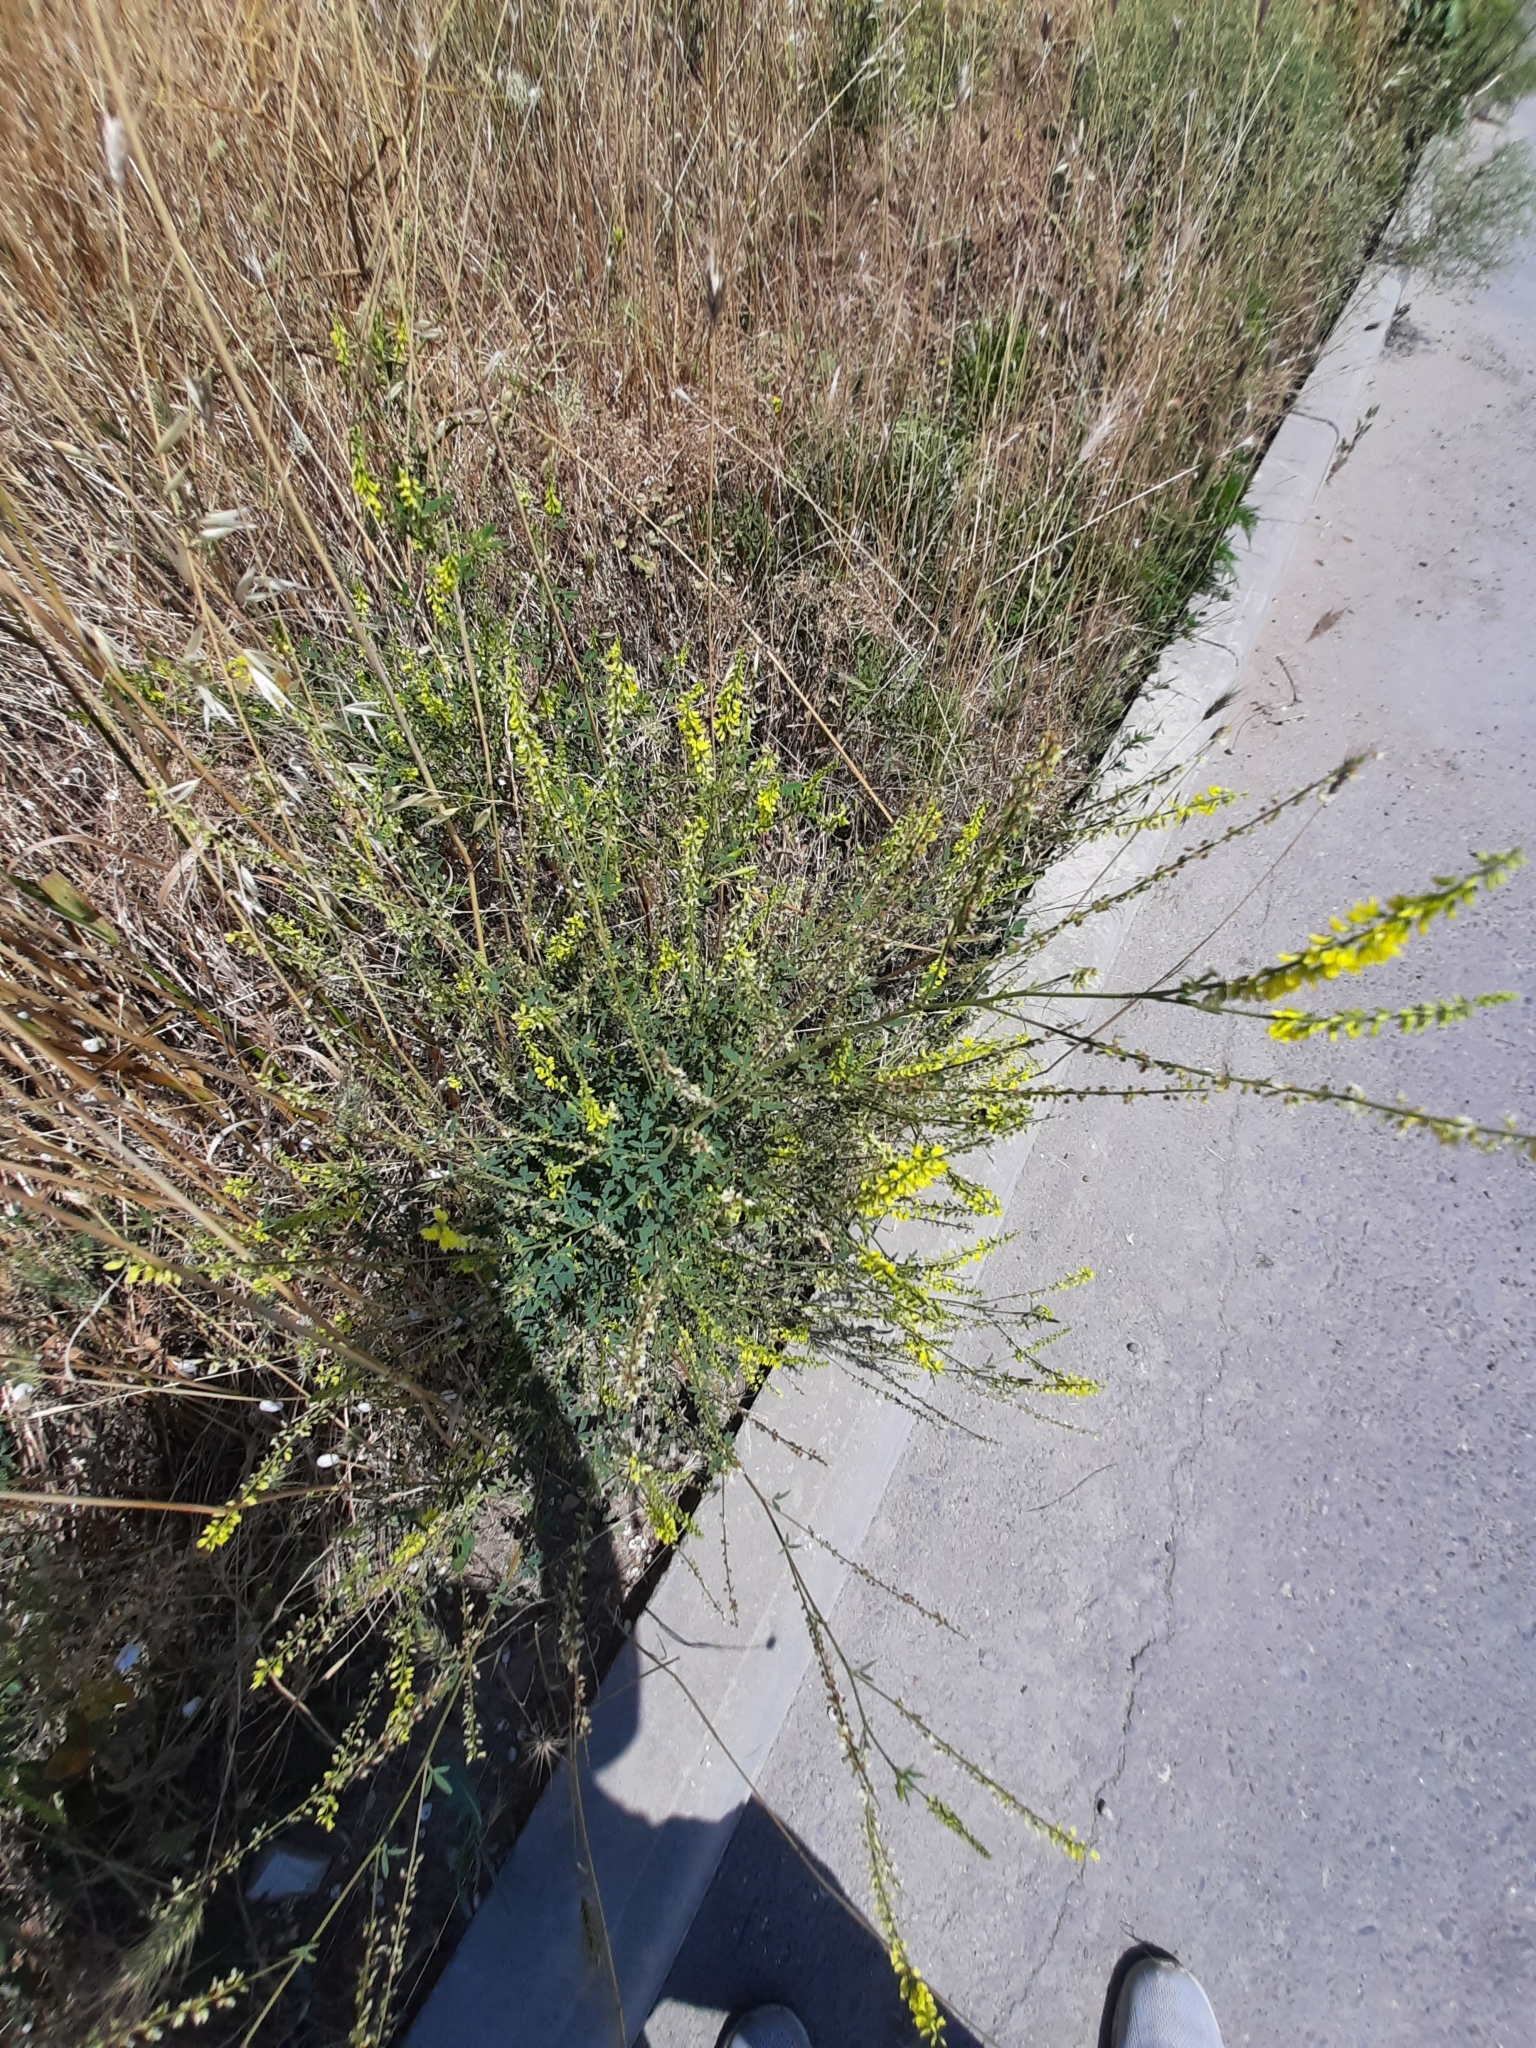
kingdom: Plantae
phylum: Tracheophyta
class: Magnoliopsida
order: Fabales
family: Fabaceae
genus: Melilotus
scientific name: Melilotus officinalis
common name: Sweetclover
